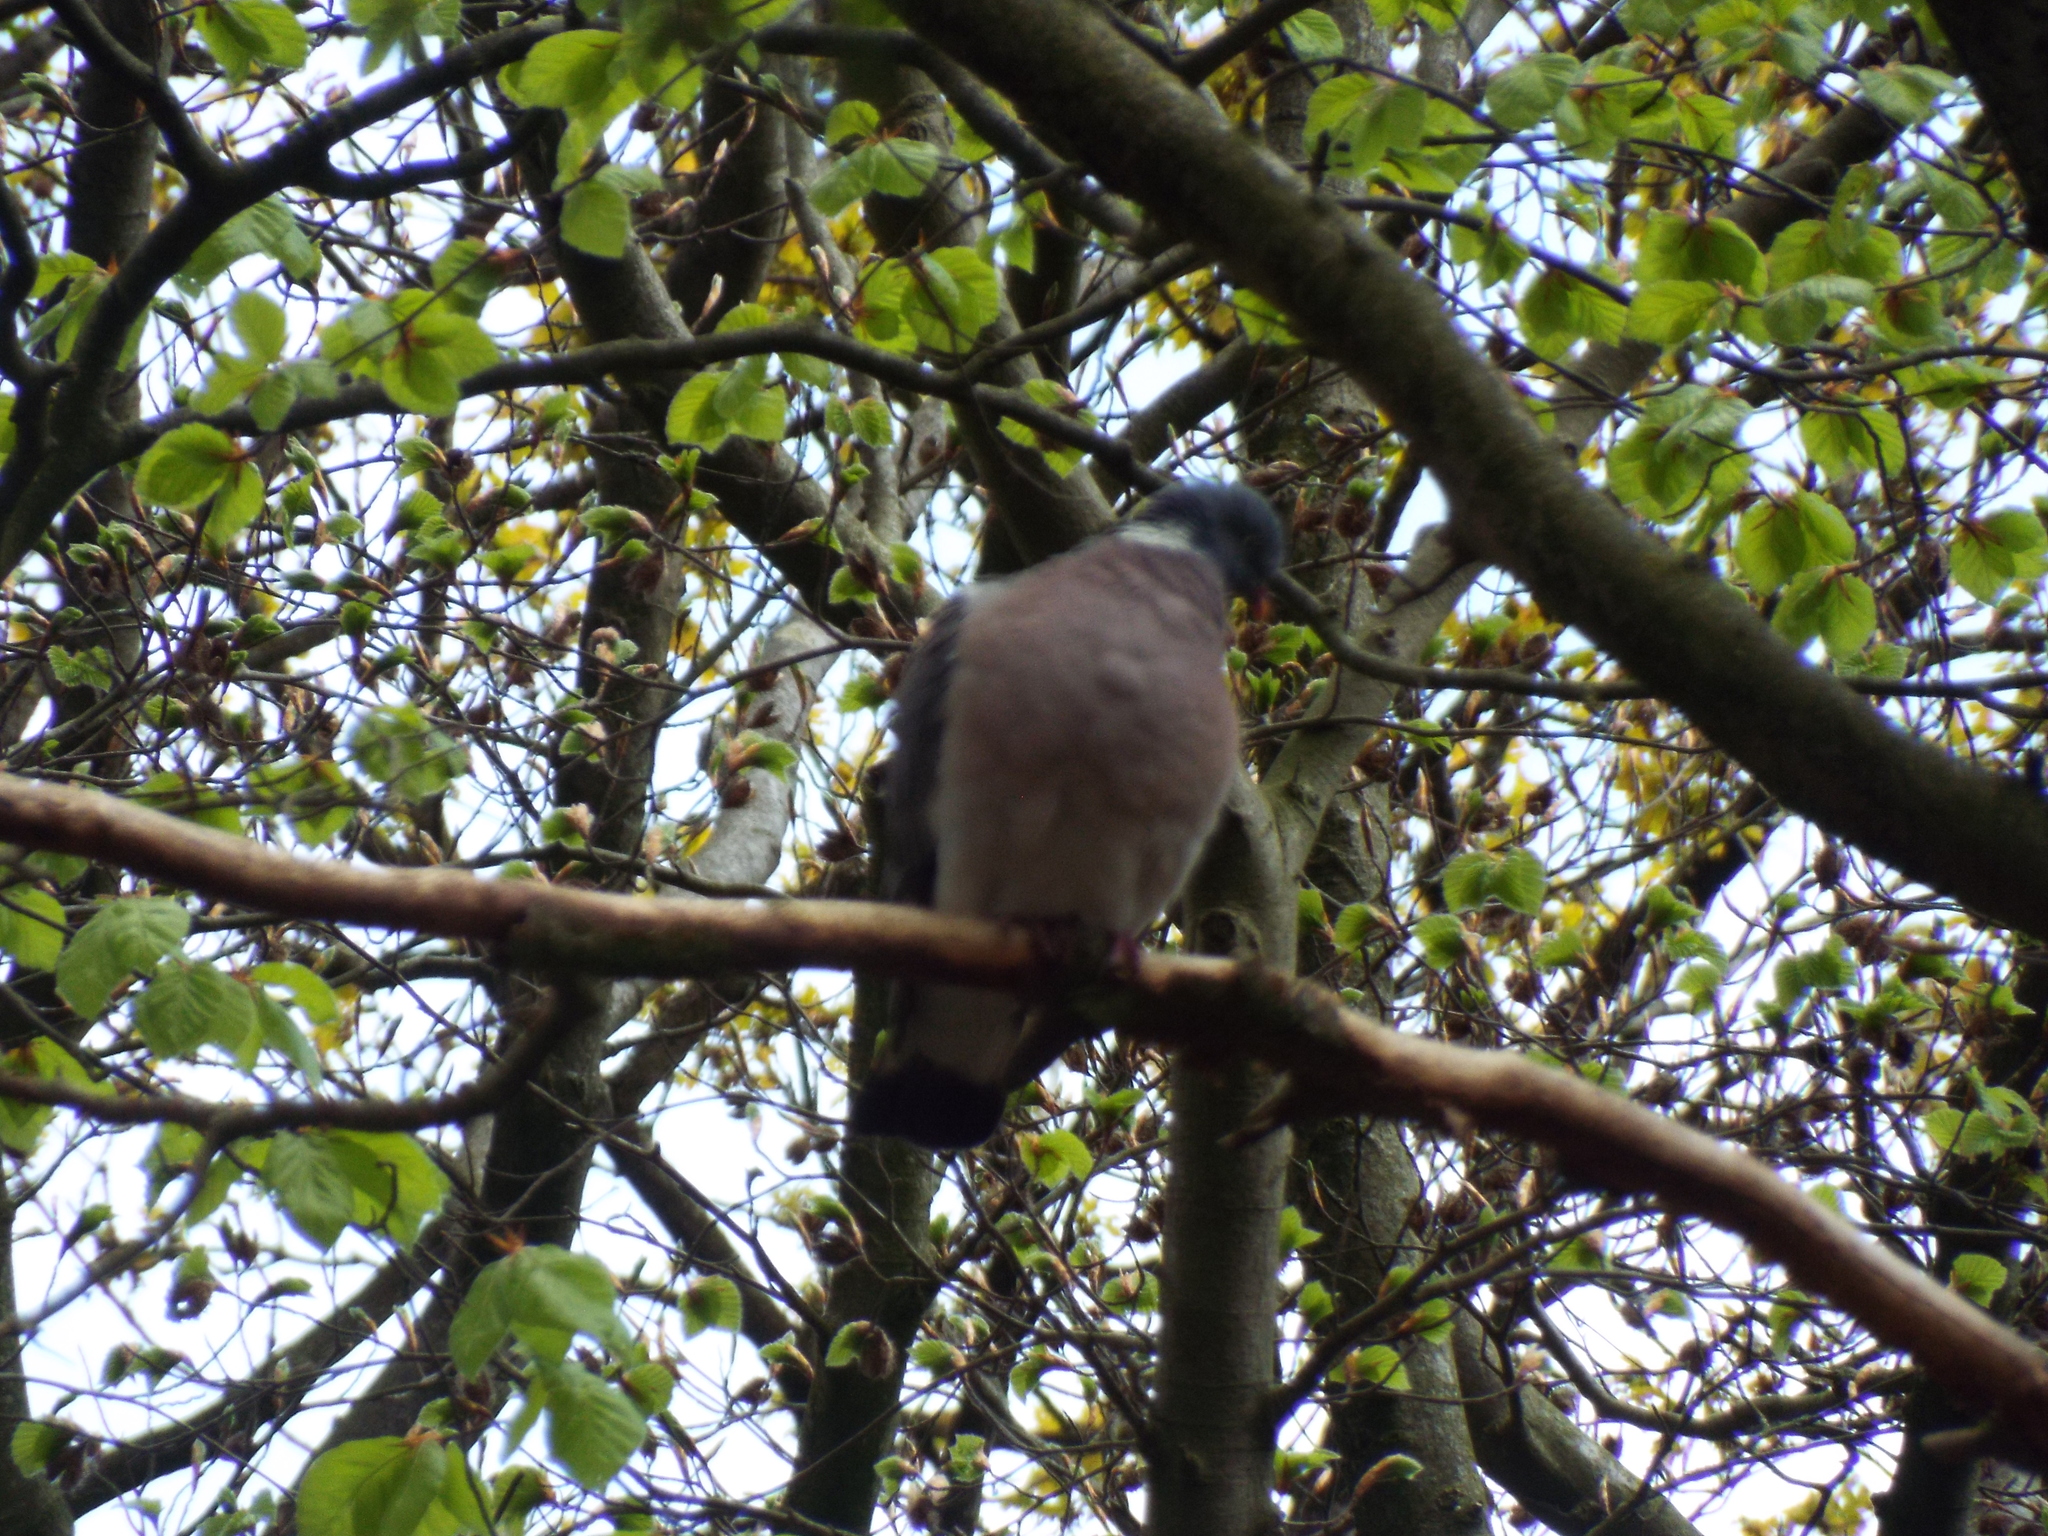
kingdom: Animalia
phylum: Chordata
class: Aves
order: Columbiformes
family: Columbidae
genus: Columba
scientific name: Columba palumbus
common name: Common wood pigeon
